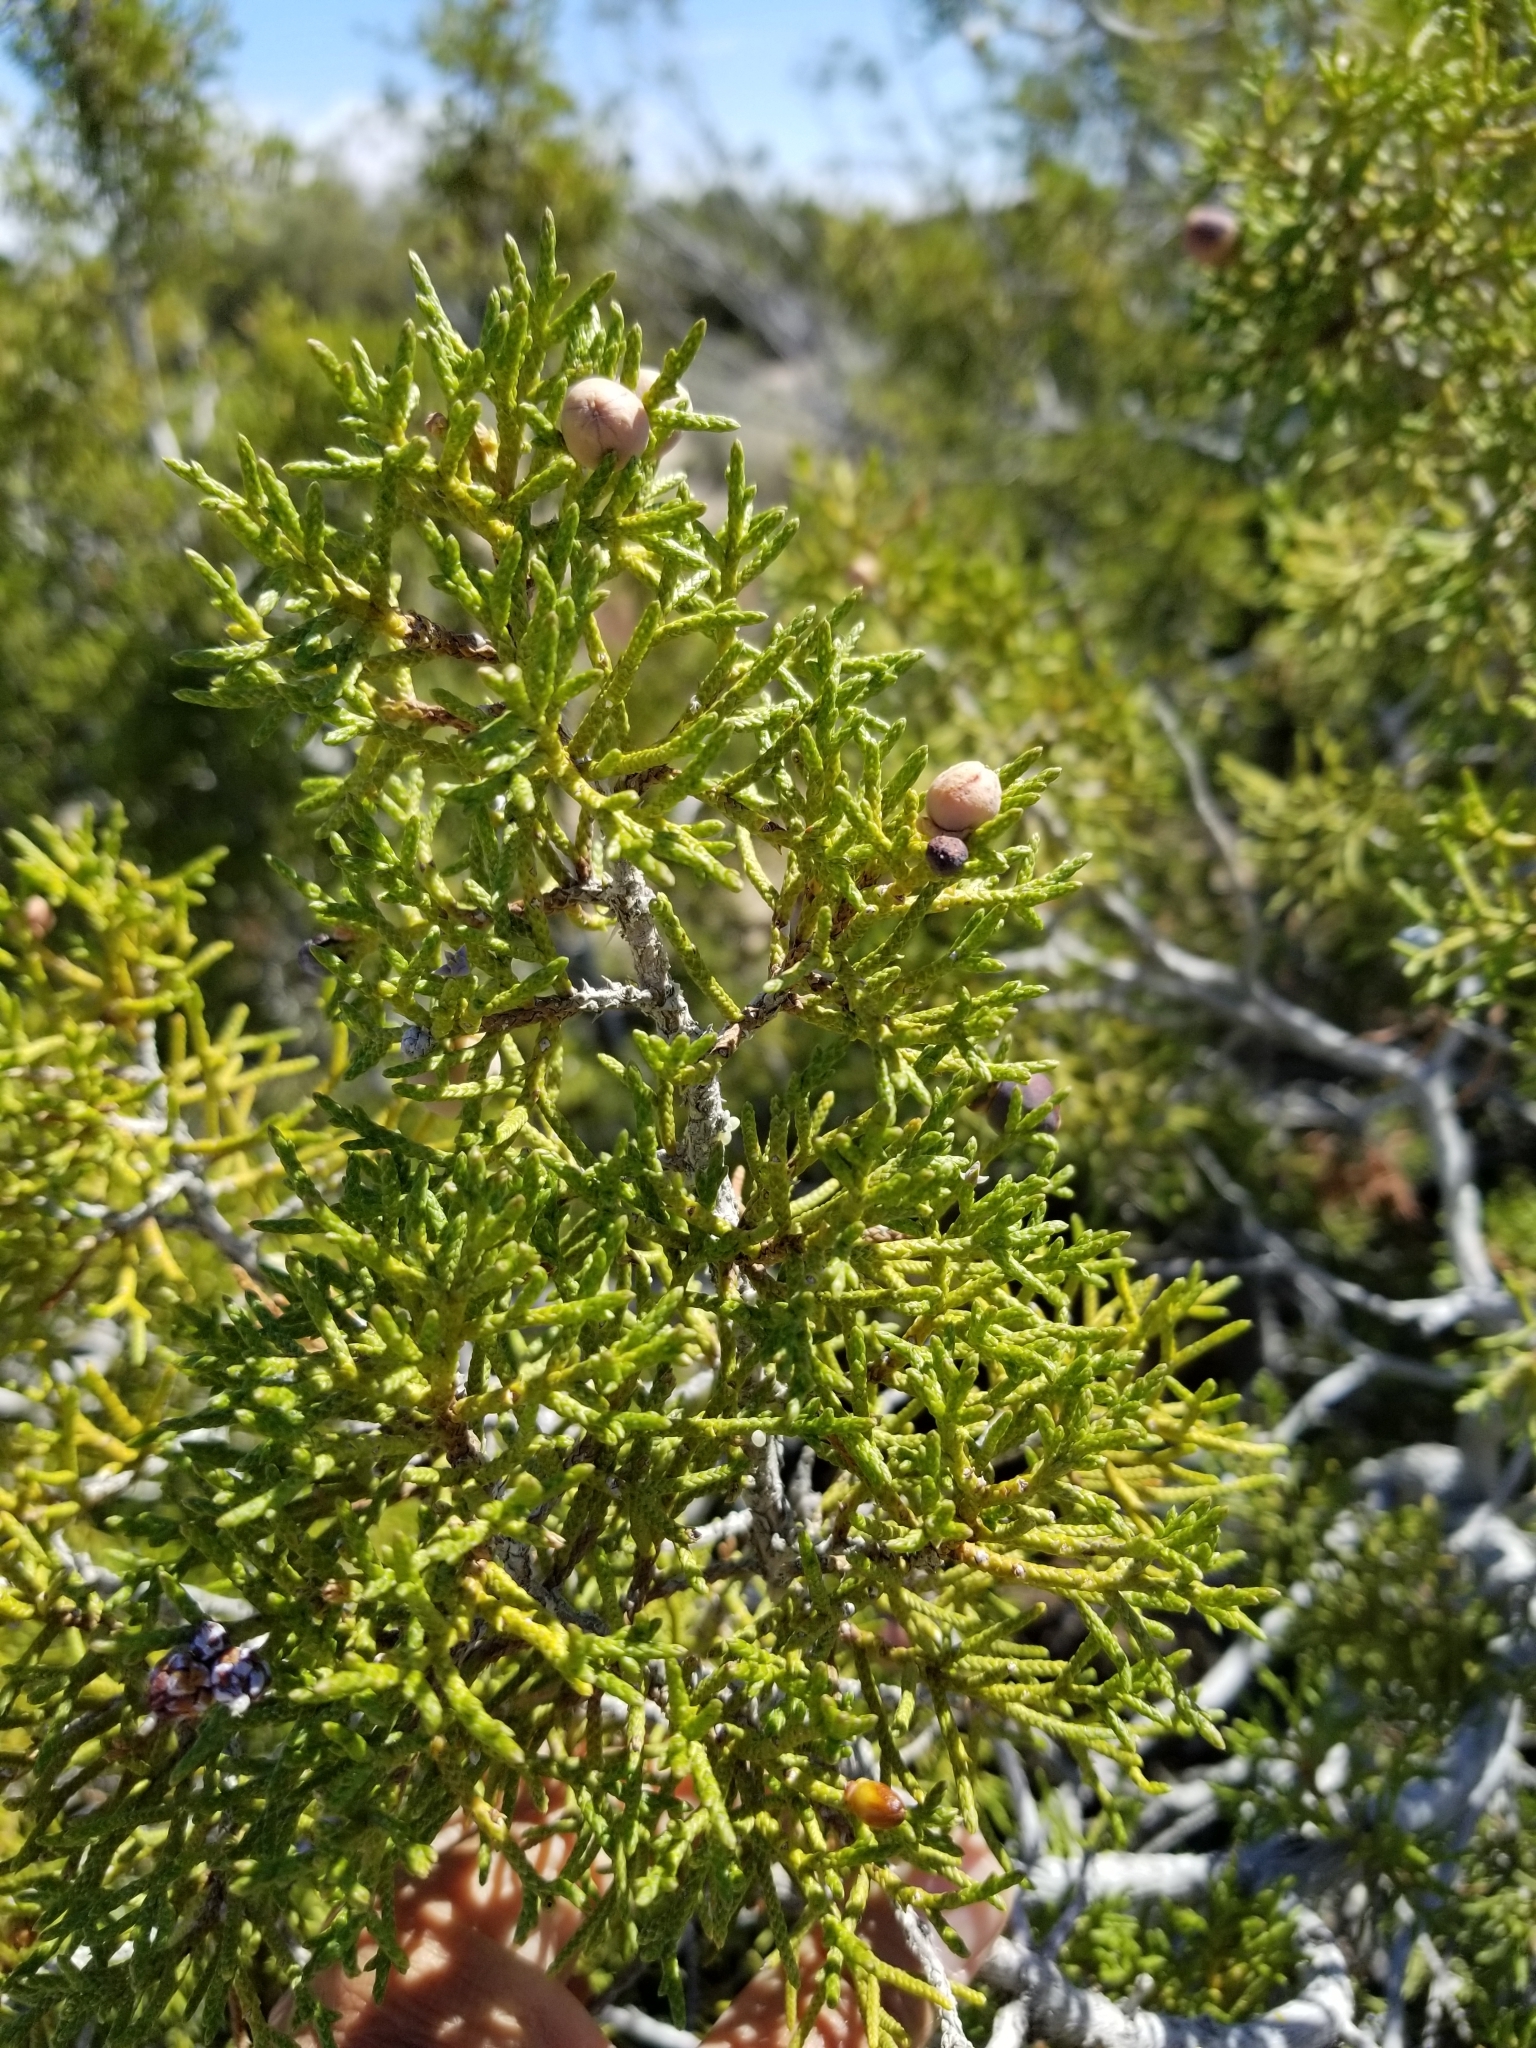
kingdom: Plantae
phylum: Tracheophyta
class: Pinopsida
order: Pinales
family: Cupressaceae
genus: Juniperus
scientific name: Juniperus californica
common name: California juniper
